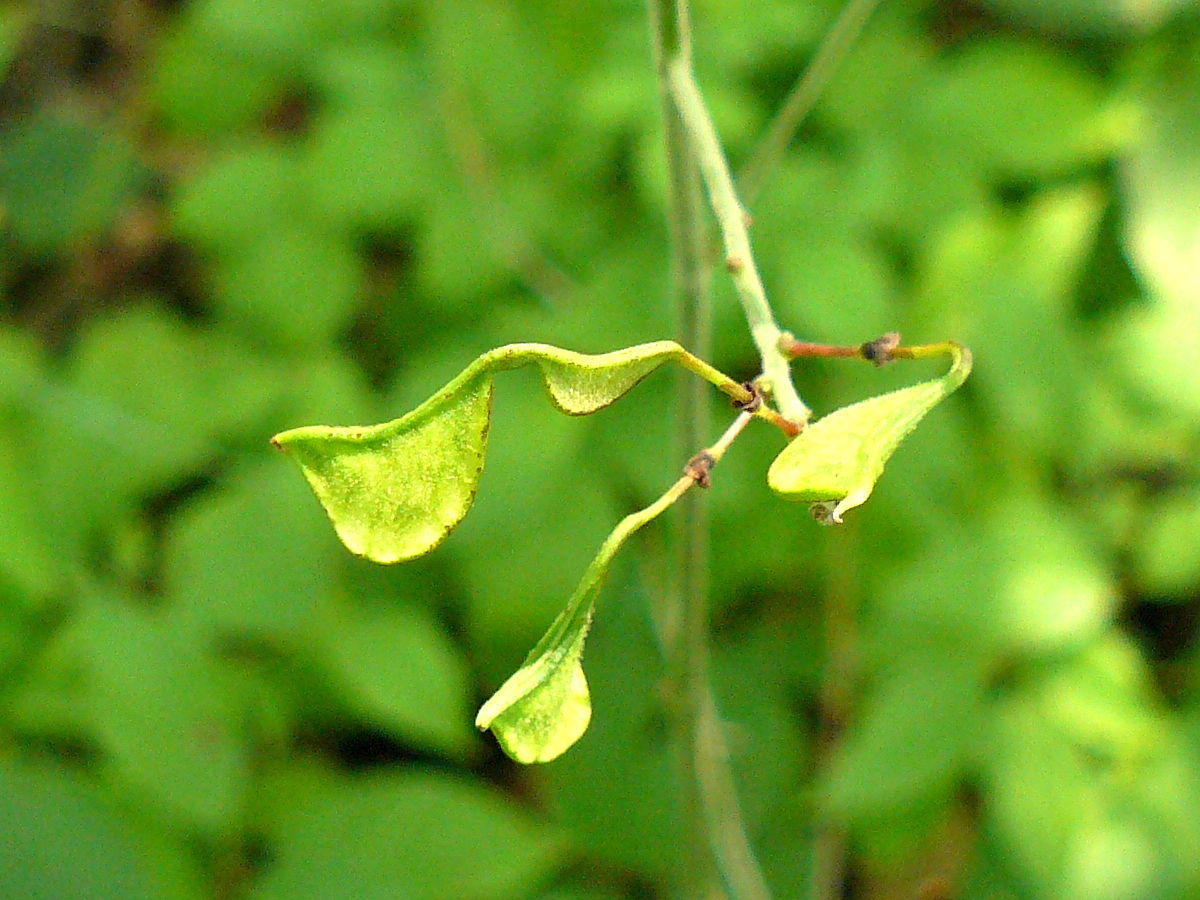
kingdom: Plantae
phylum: Tracheophyta
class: Magnoliopsida
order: Fabales
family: Fabaceae
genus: Hylodesmum
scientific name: Hylodesmum glutinosum
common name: Clustered-leaved tick-trefoil
